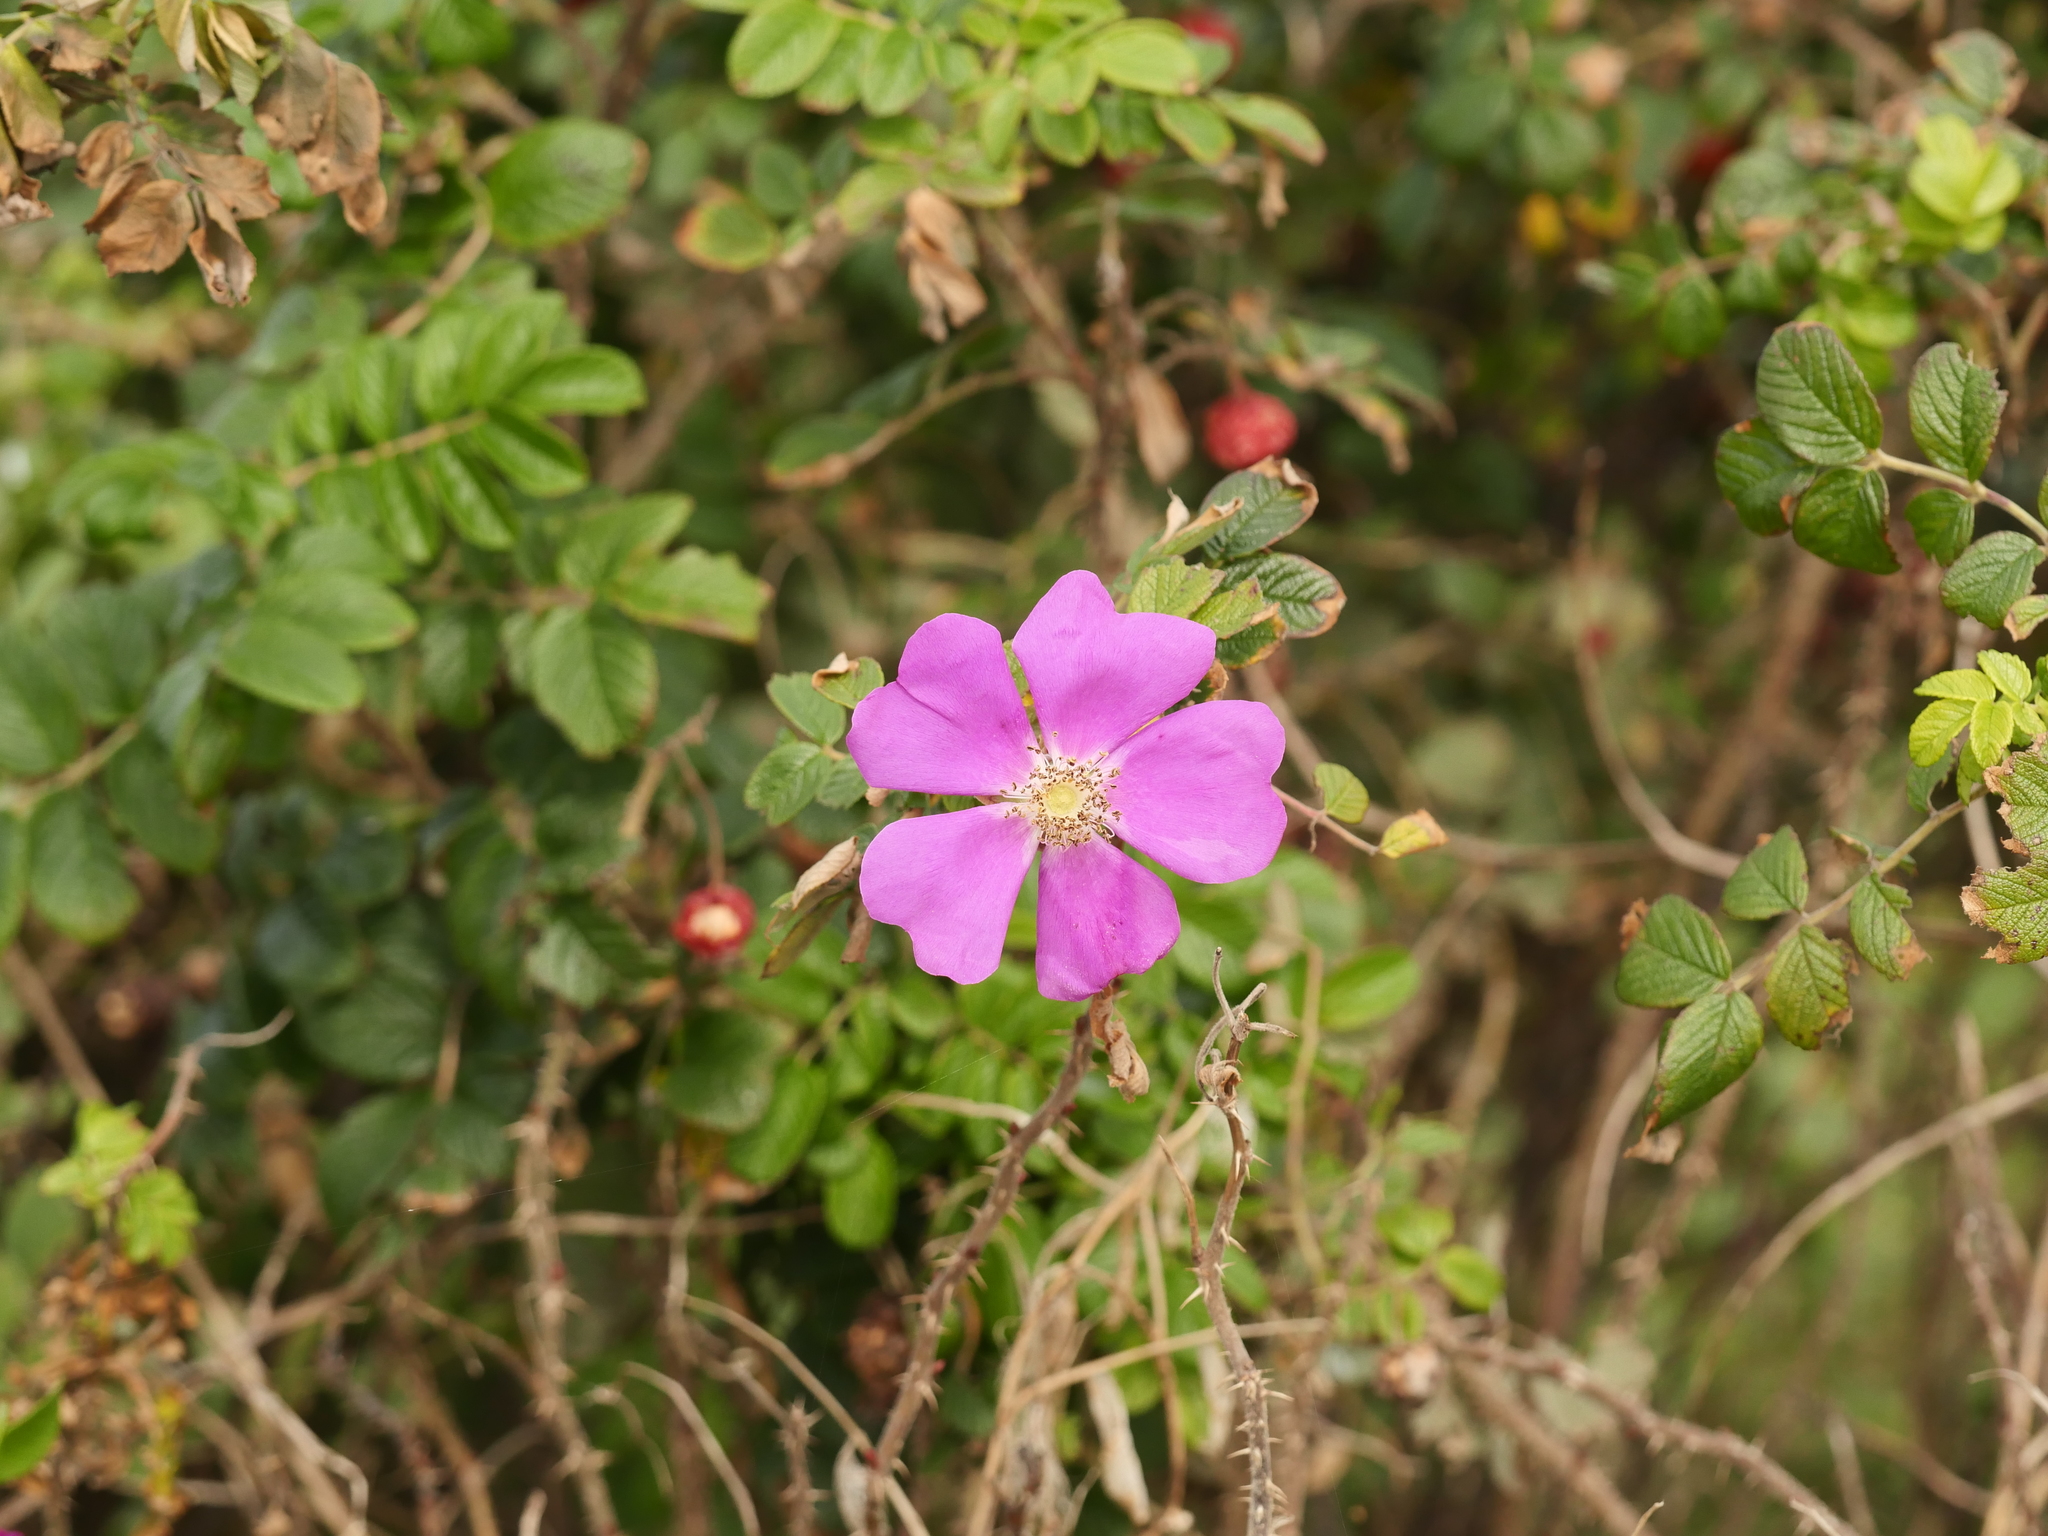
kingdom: Plantae
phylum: Tracheophyta
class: Magnoliopsida
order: Rosales
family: Rosaceae
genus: Rosa
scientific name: Rosa rugosa
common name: Japanese rose
